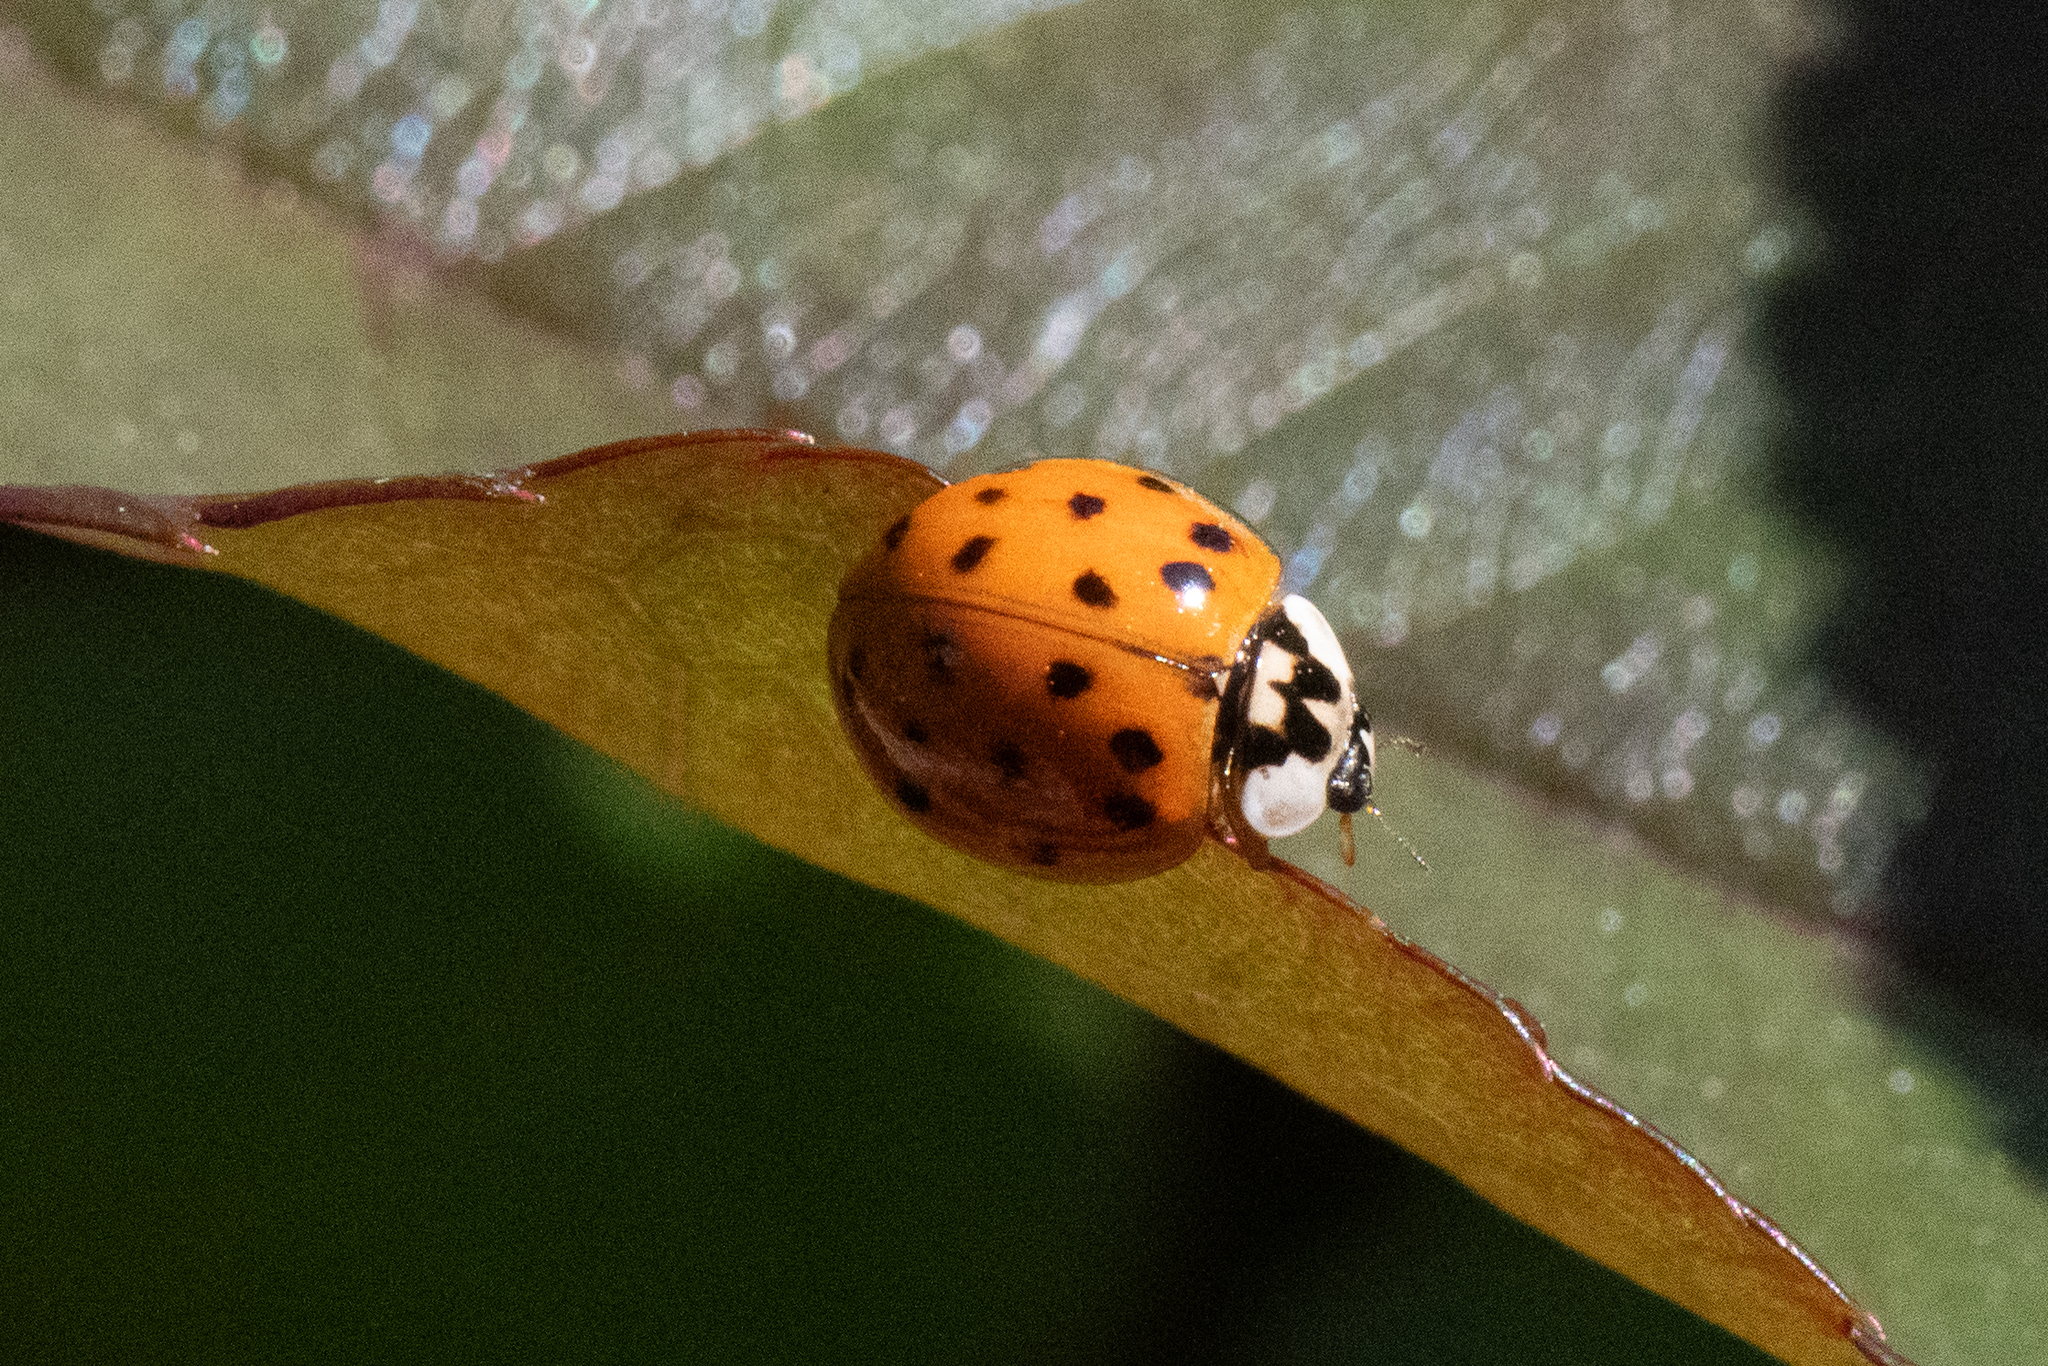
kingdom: Animalia
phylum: Arthropoda
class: Insecta
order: Coleoptera
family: Coccinellidae
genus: Harmonia
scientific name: Harmonia axyridis
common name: Harlequin ladybird
